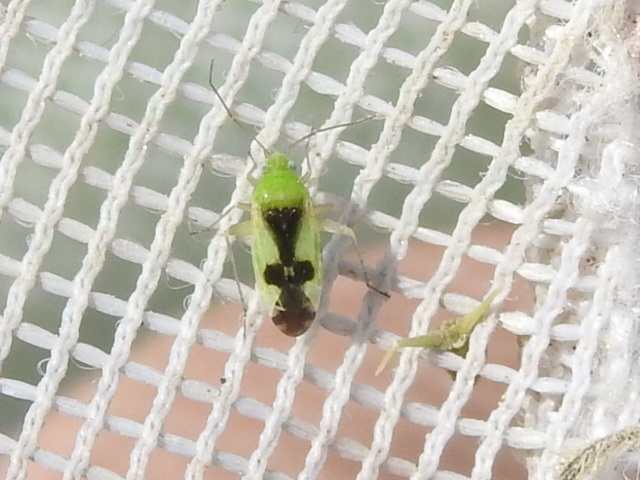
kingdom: Animalia
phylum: Arthropoda
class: Insecta
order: Hemiptera
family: Miridae
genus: Reuteroscopus
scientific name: Reuteroscopus ornatus
